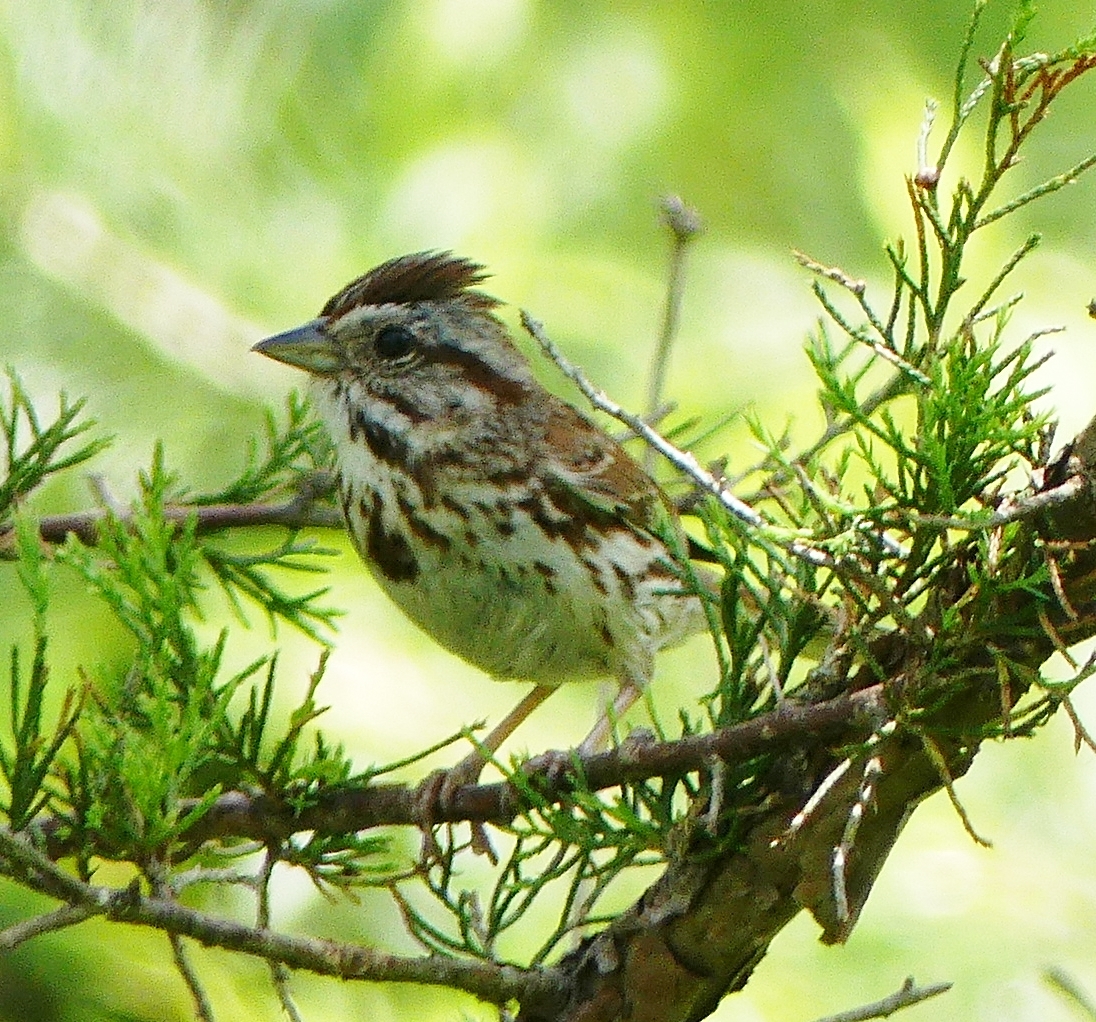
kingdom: Animalia
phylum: Chordata
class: Aves
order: Passeriformes
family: Passerellidae
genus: Melospiza
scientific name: Melospiza melodia
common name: Song sparrow
